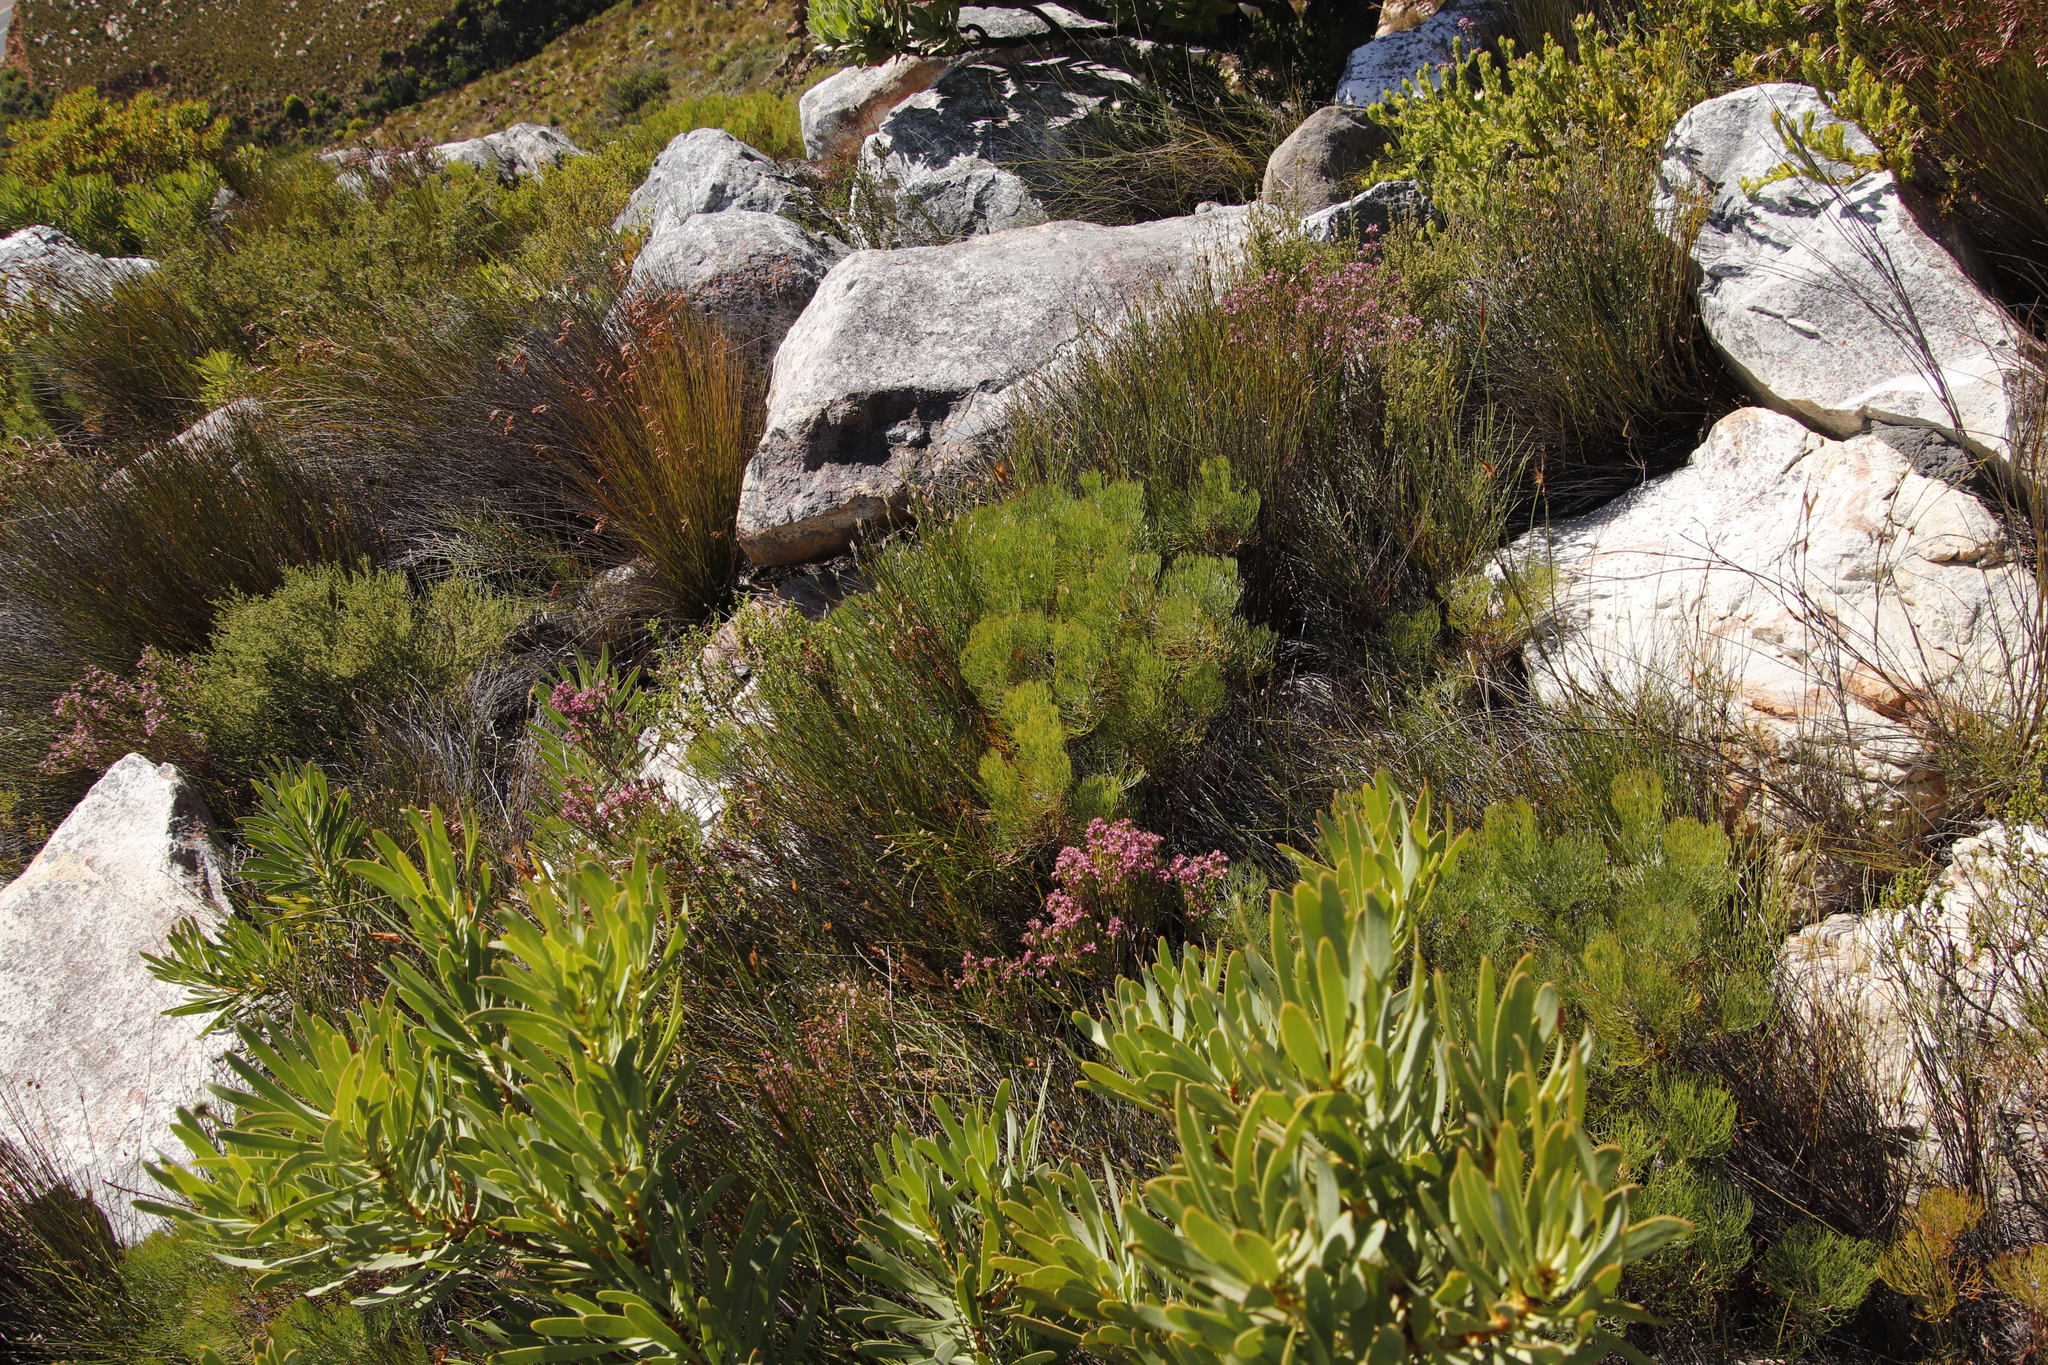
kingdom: Plantae
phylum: Tracheophyta
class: Magnoliopsida
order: Proteales
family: Proteaceae
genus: Leucadendron
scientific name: Leucadendron laureolum
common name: Golden sunshinebush
